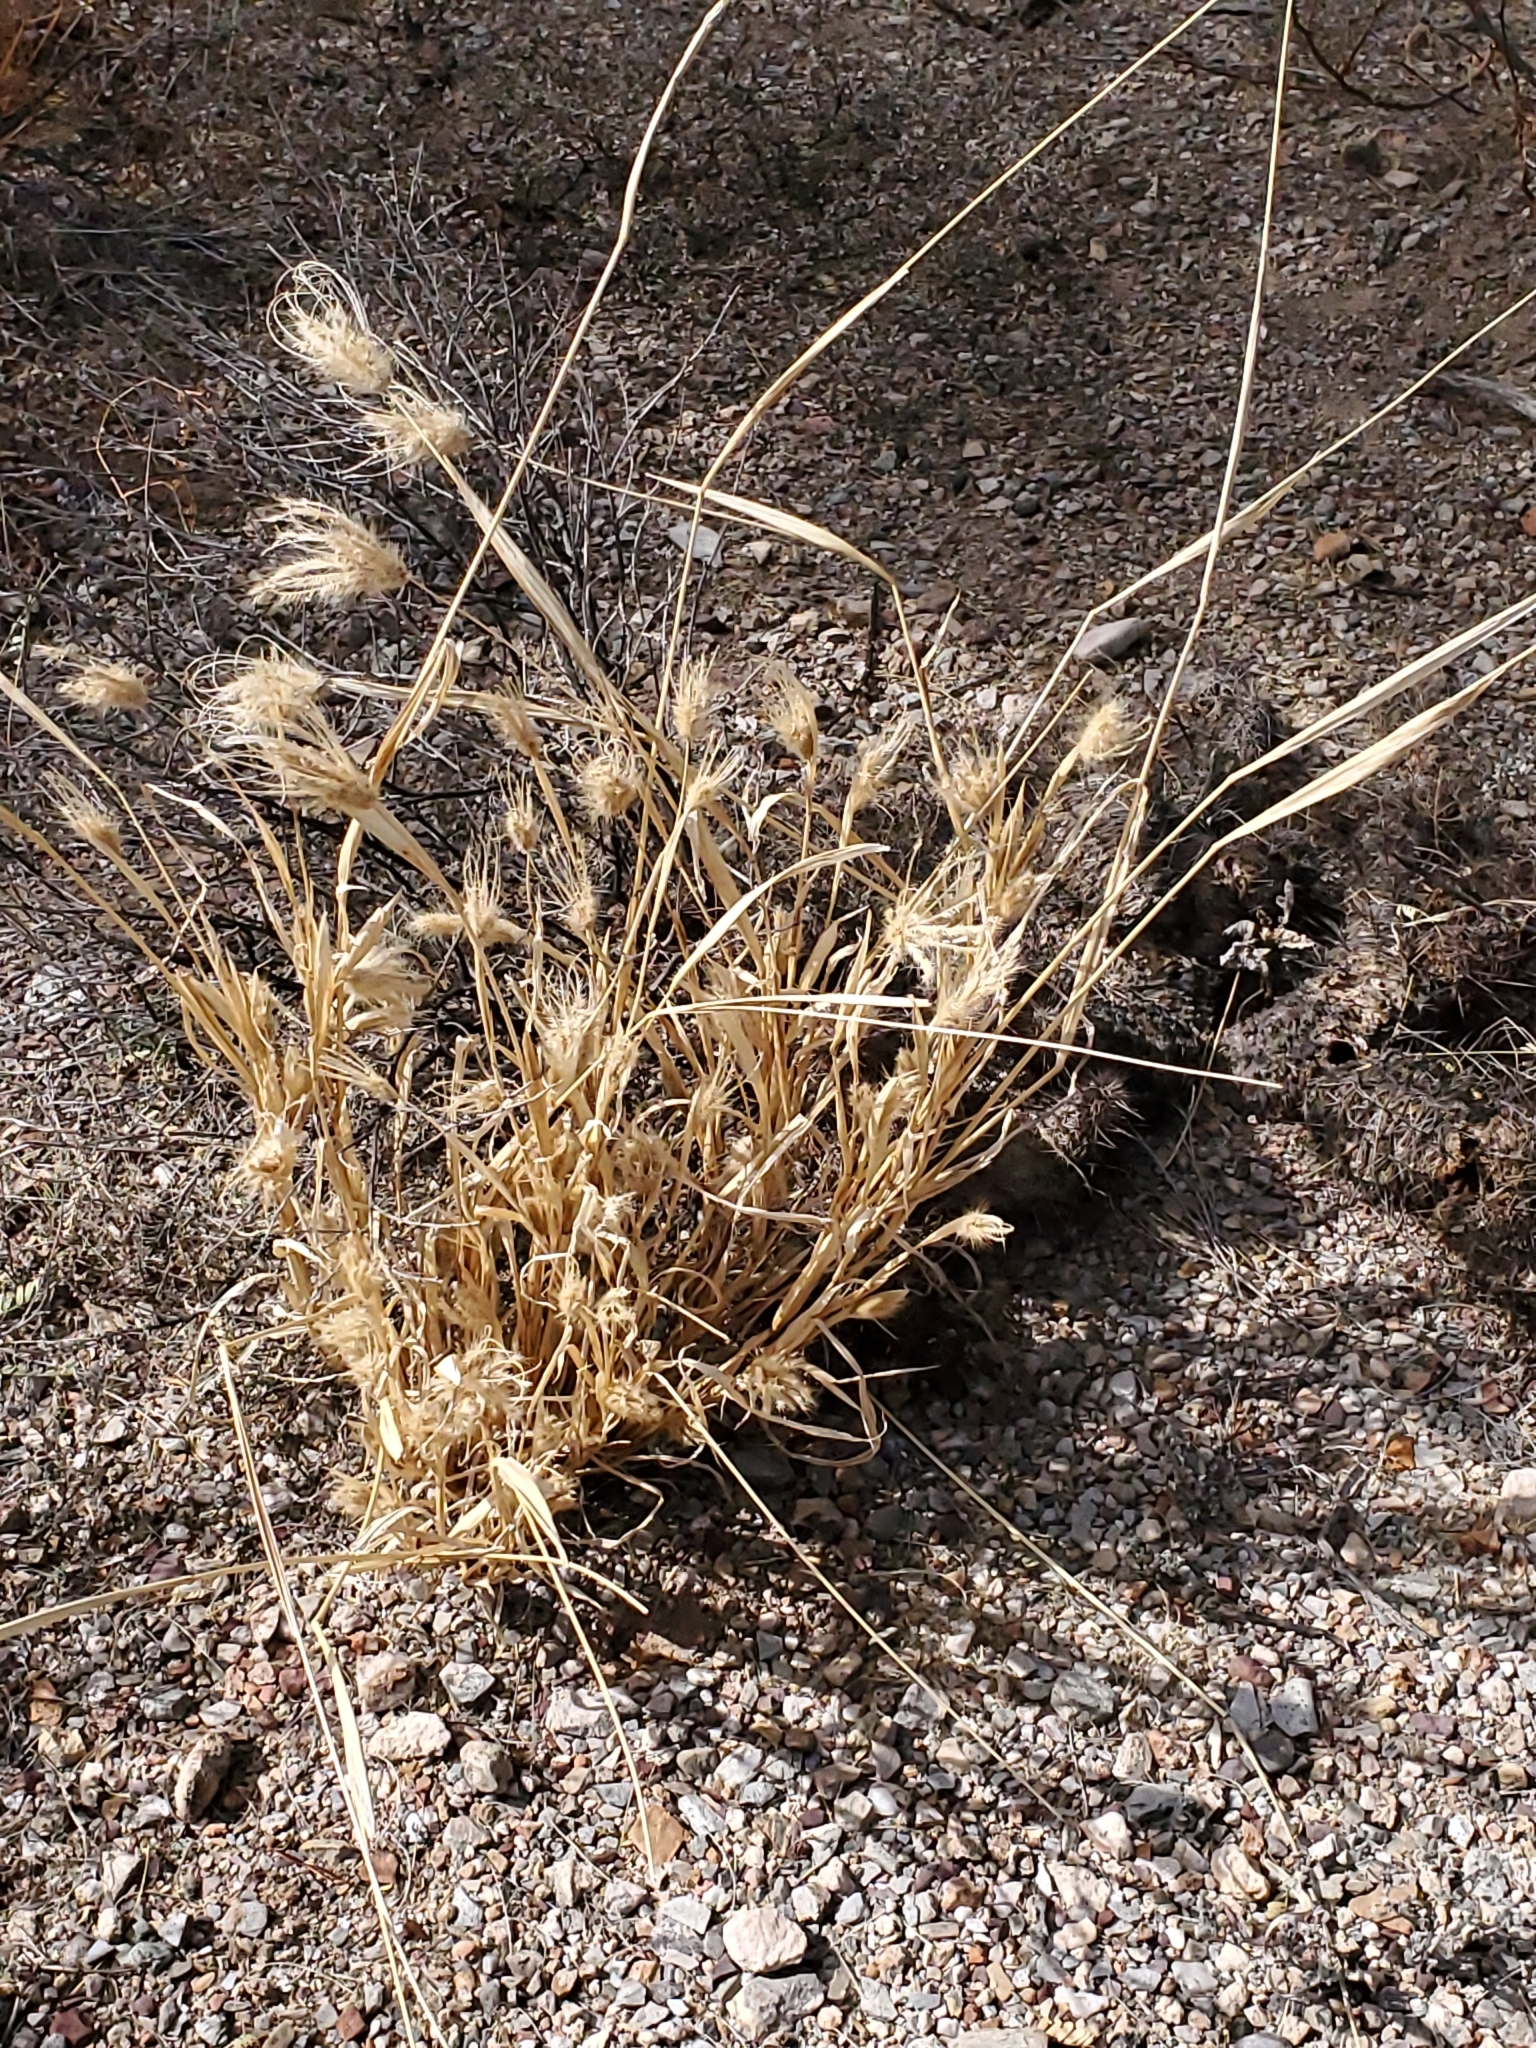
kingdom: Plantae
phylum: Tracheophyta
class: Liliopsida
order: Poales
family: Poaceae
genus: Chloris
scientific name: Chloris virgata
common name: Feathery rhodes-grass
